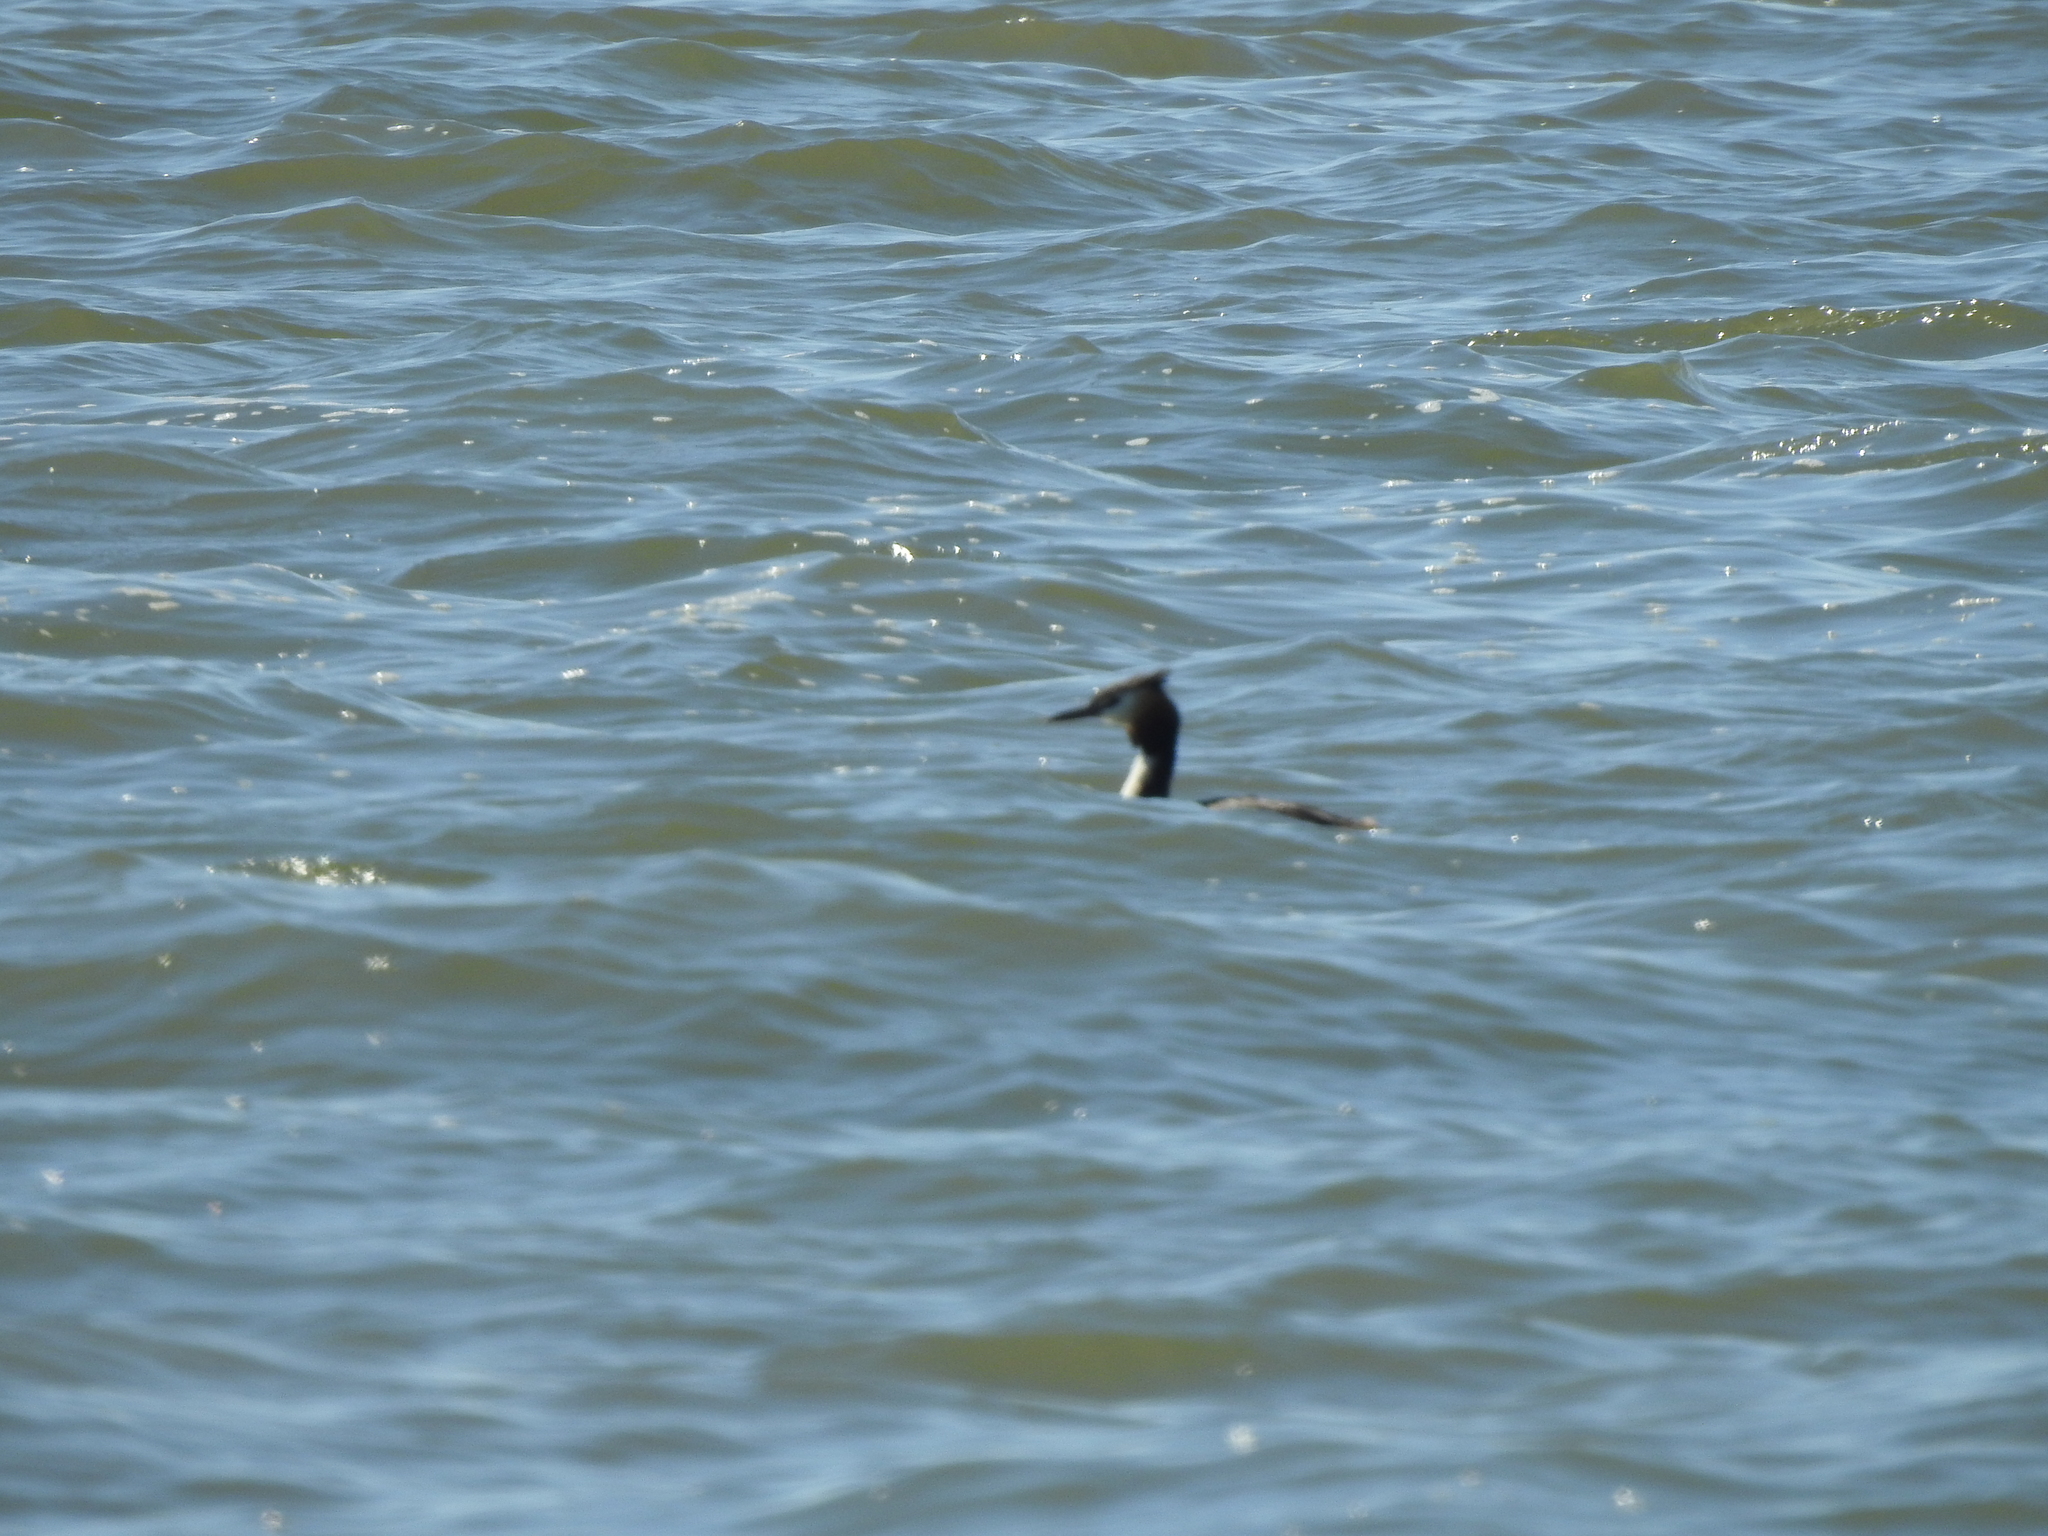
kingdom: Animalia
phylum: Chordata
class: Aves
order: Podicipediformes
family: Podicipedidae
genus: Podiceps
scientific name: Podiceps cristatus
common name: Great crested grebe
